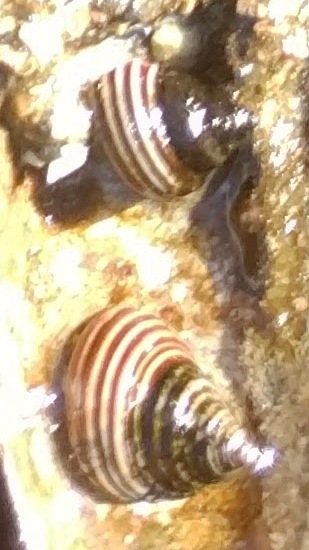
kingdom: Animalia
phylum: Mollusca
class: Gastropoda
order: Trochida
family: Calliostomatidae
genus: Calliostoma
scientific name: Calliostoma ligatum
